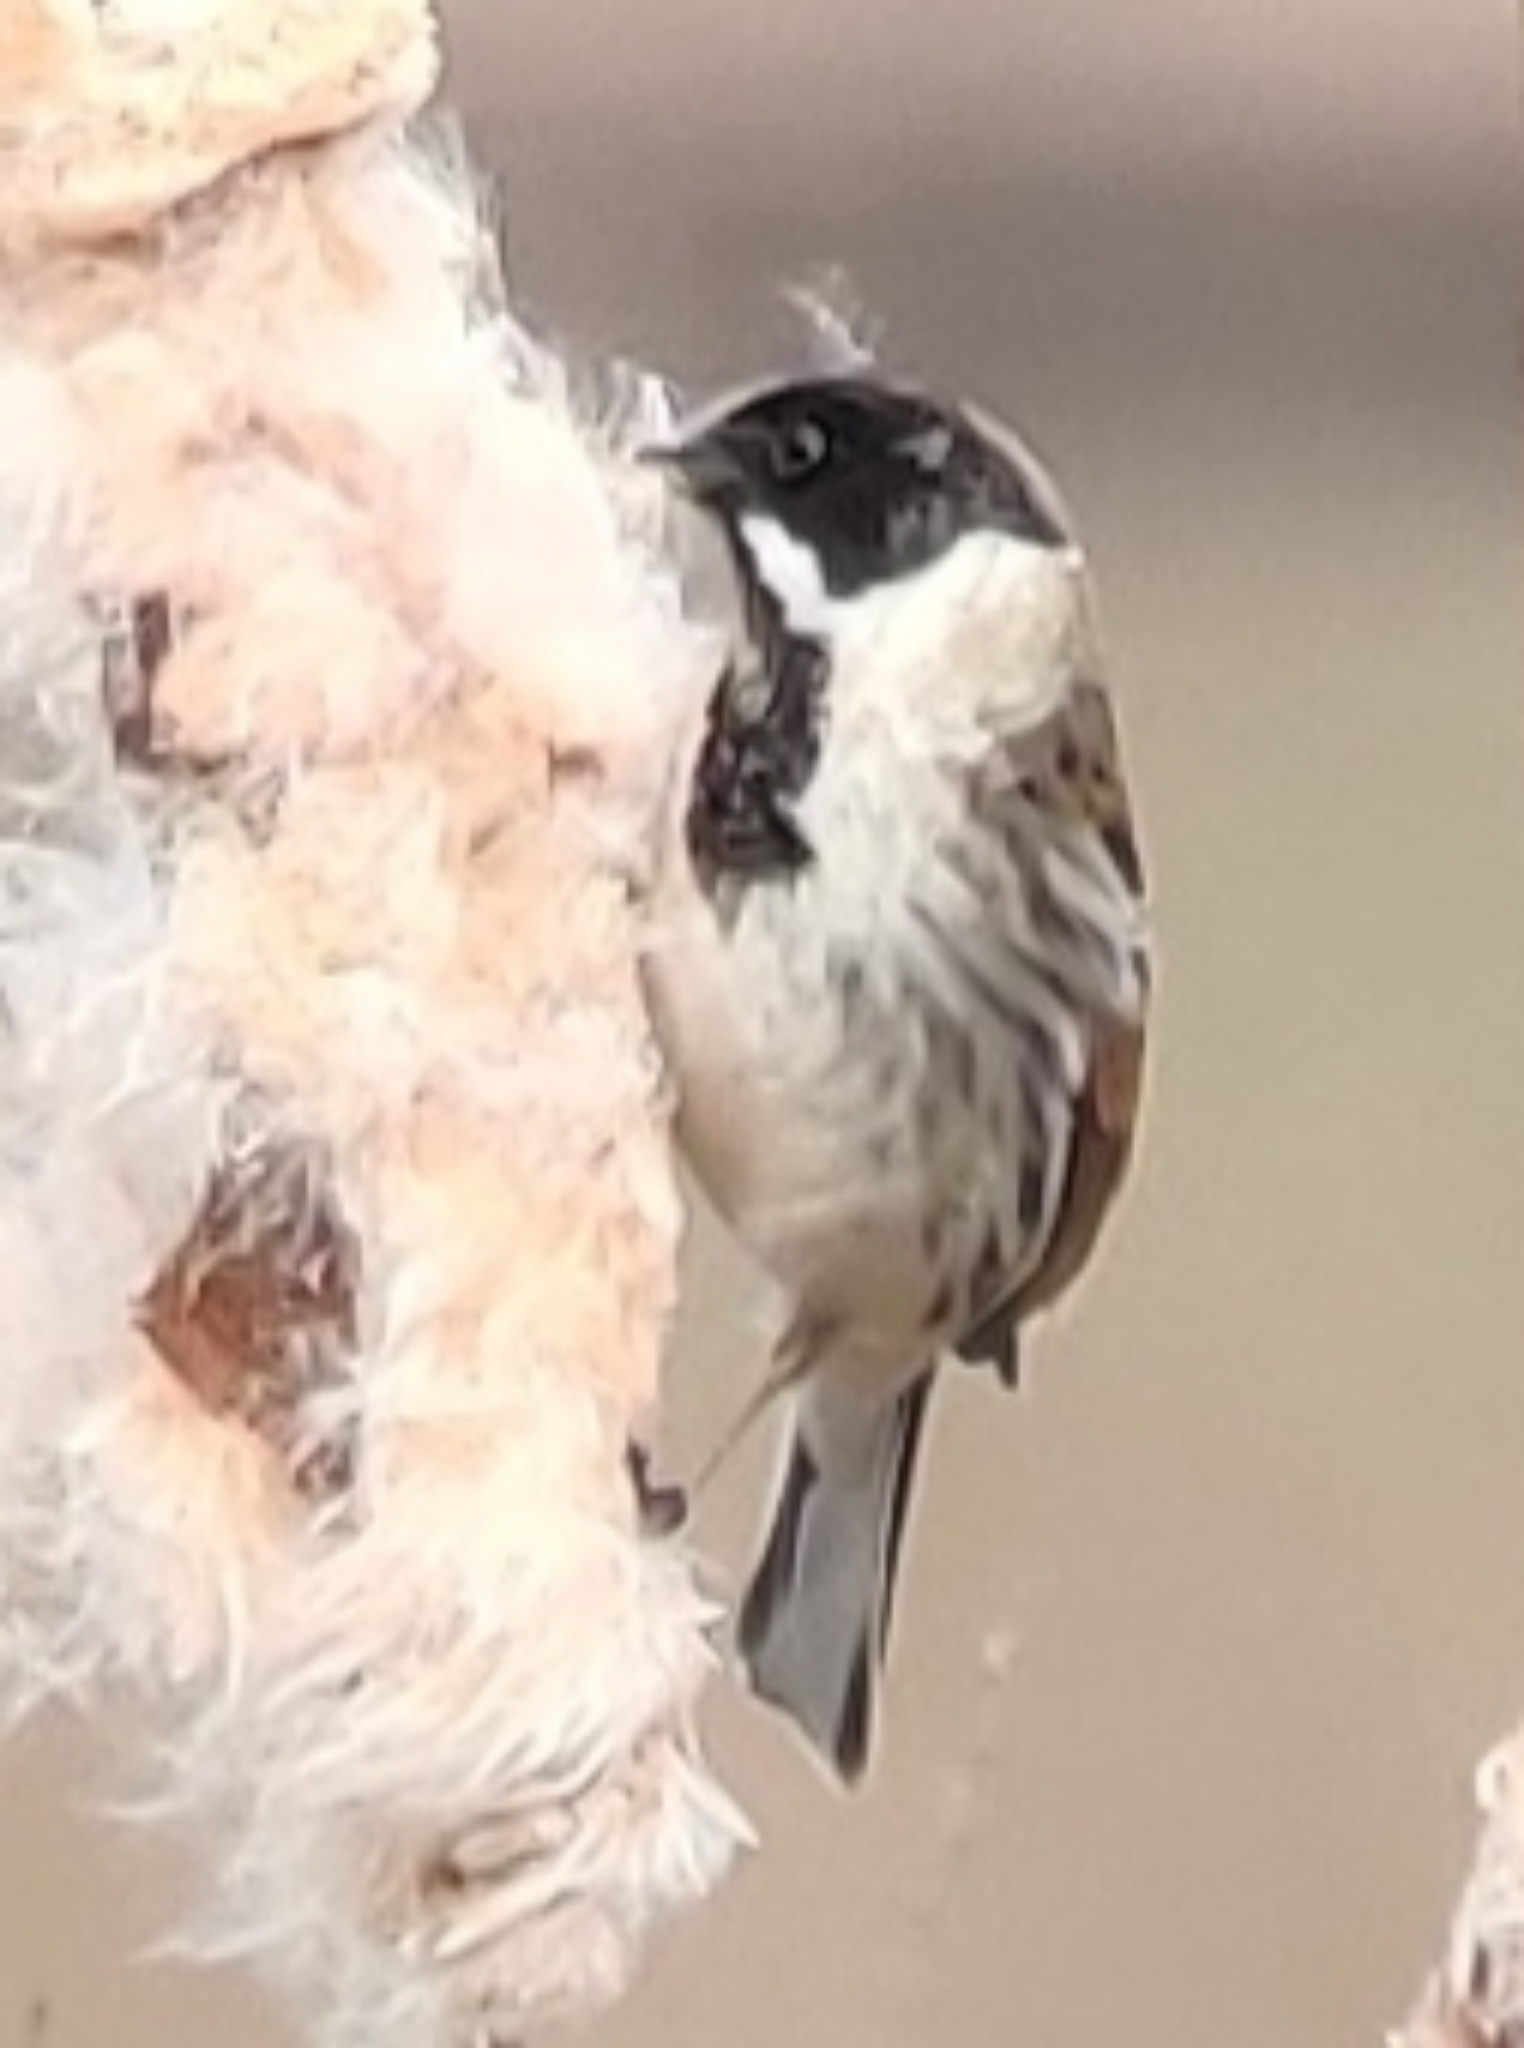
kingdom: Animalia
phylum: Chordata
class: Aves
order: Passeriformes
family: Emberizidae
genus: Emberiza
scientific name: Emberiza schoeniclus
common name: Reed bunting
